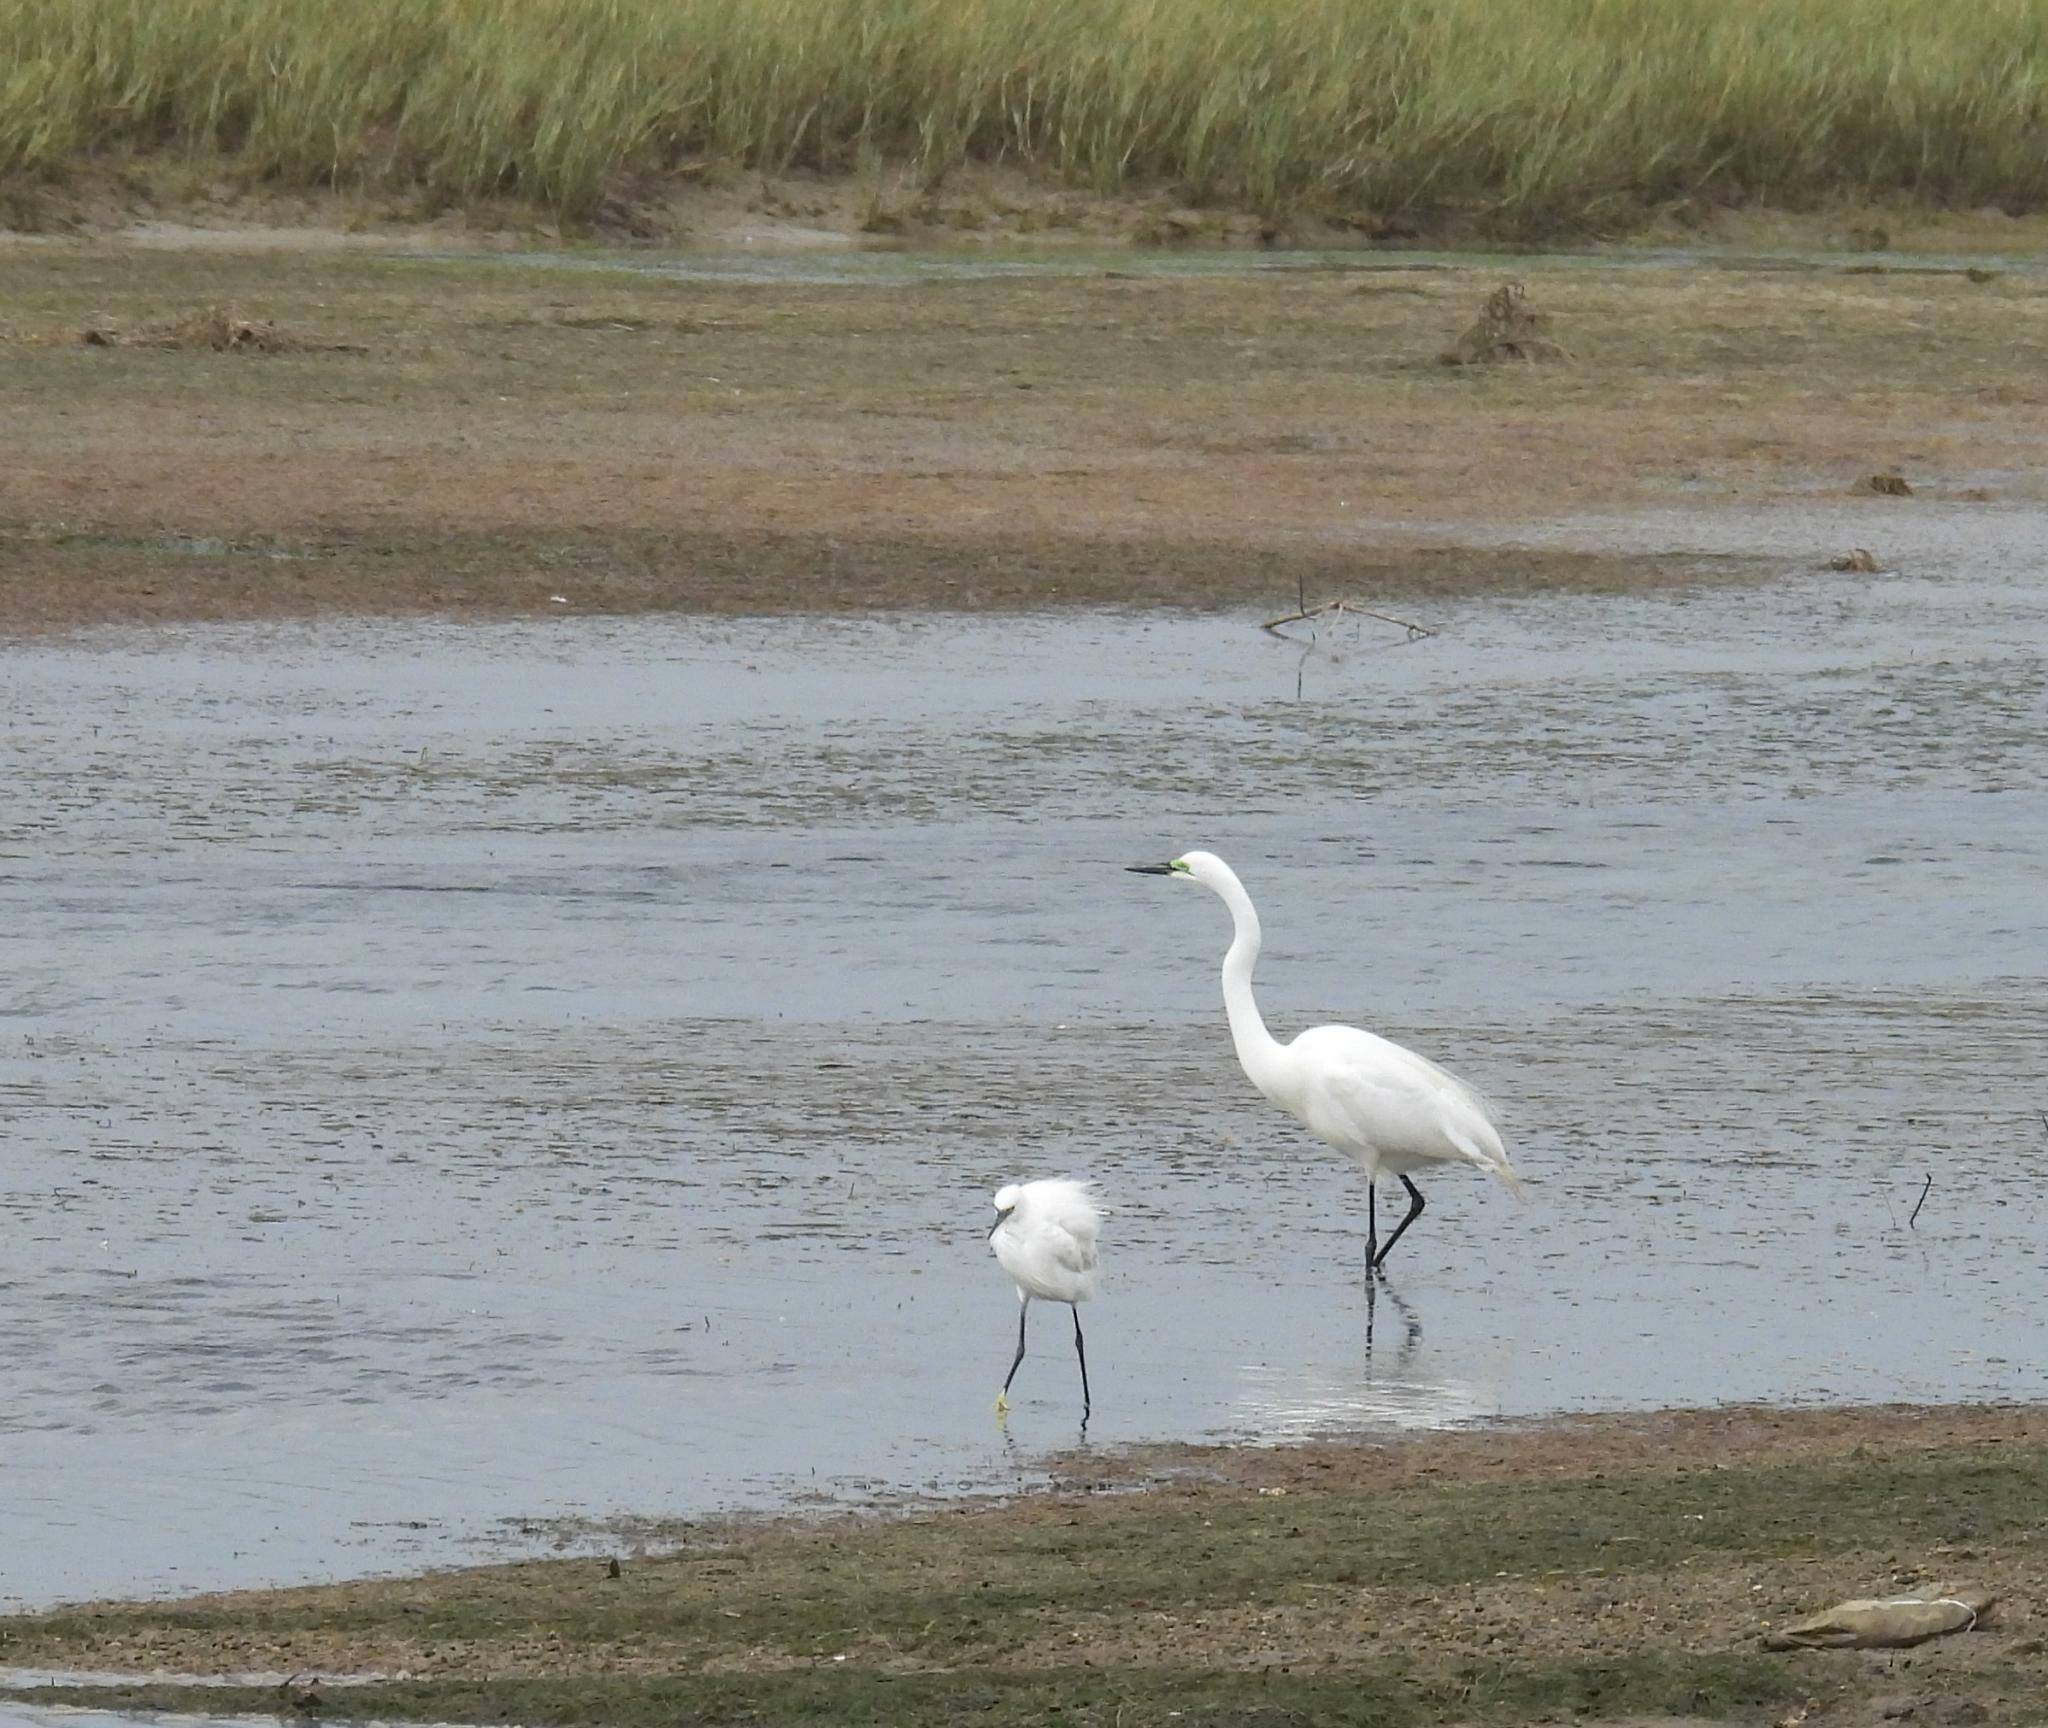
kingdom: Animalia
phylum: Chordata
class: Aves
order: Pelecaniformes
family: Ardeidae
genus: Egretta
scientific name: Egretta garzetta
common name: Little egret
